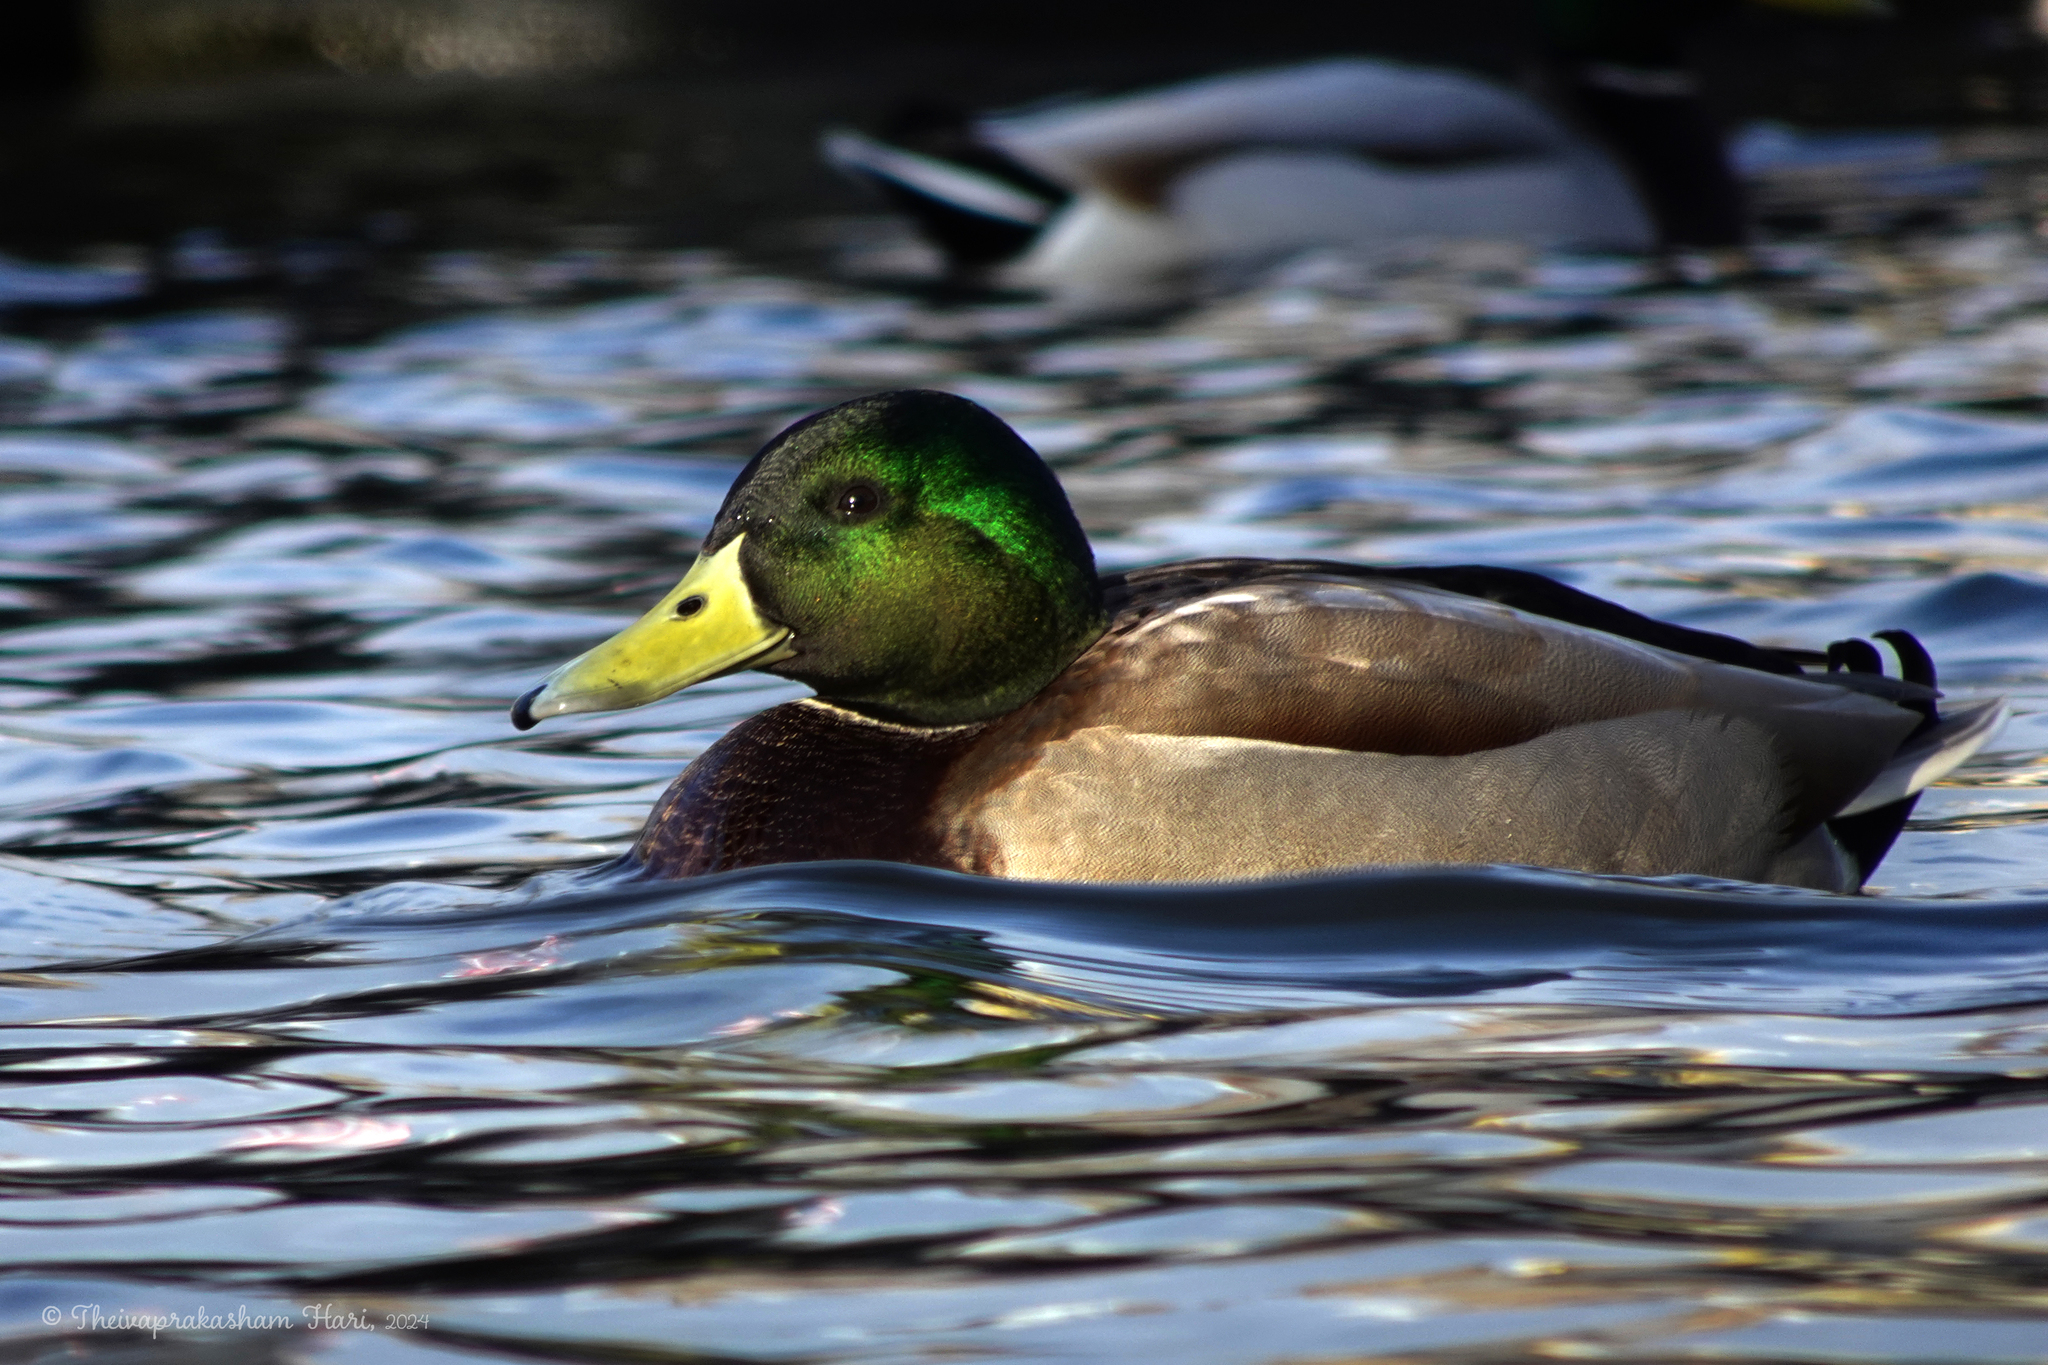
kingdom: Animalia
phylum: Chordata
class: Aves
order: Anseriformes
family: Anatidae
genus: Anas
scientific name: Anas platyrhynchos
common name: Mallard
